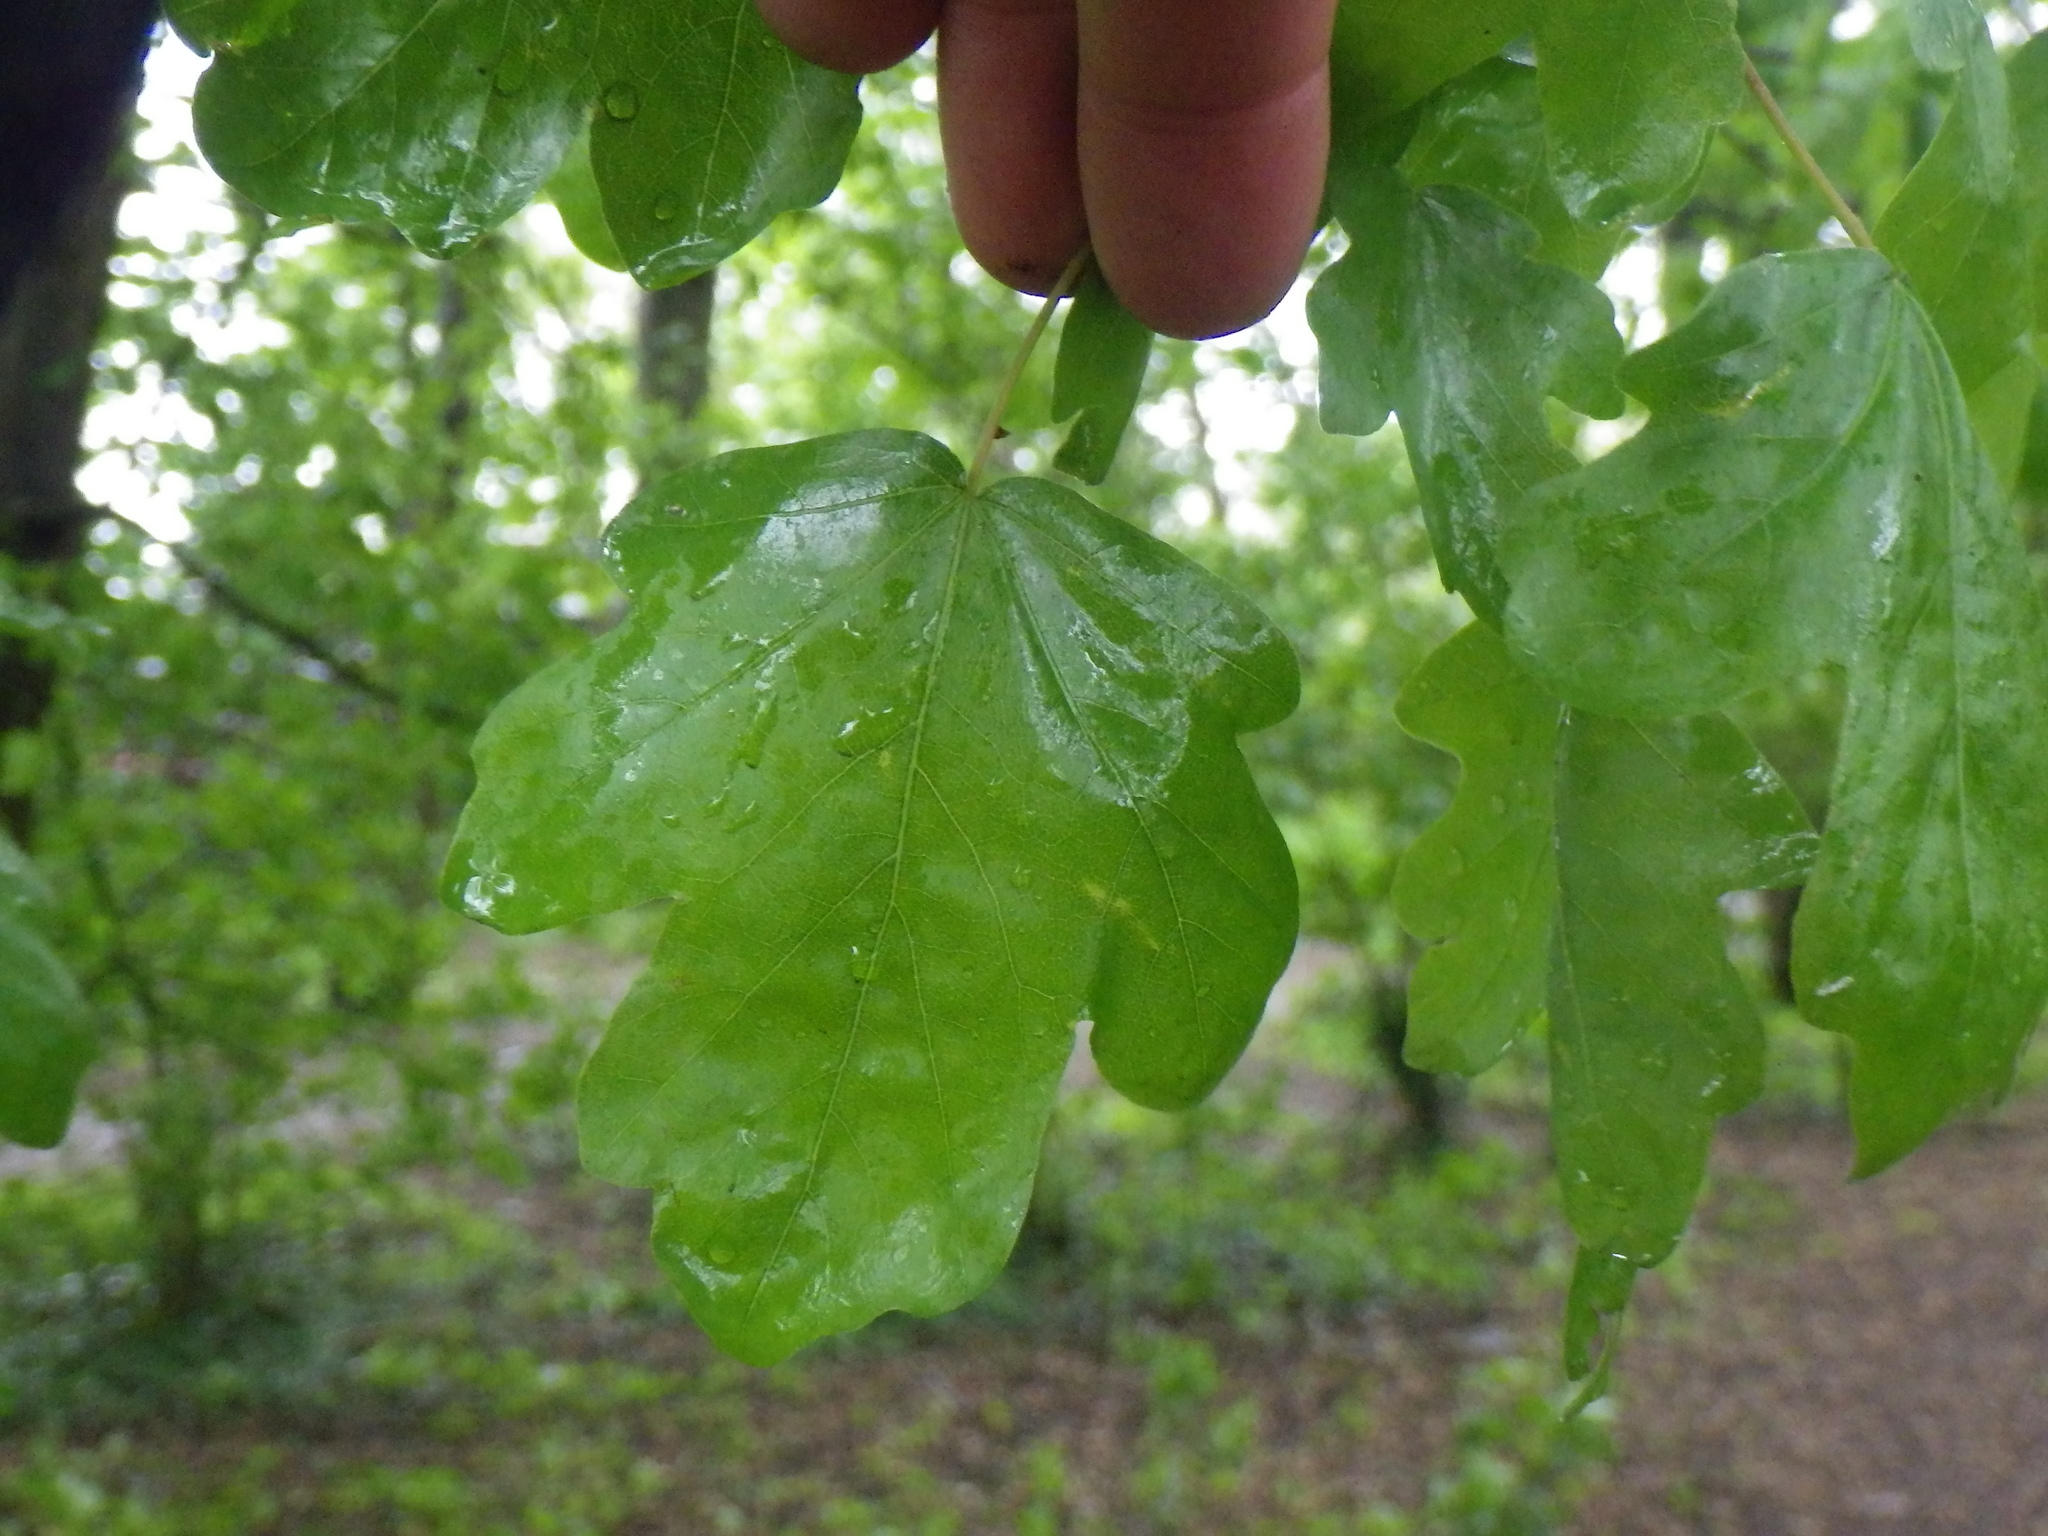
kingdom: Plantae
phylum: Tracheophyta
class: Magnoliopsida
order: Sapindales
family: Sapindaceae
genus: Acer
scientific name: Acer campestre
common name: Field maple
